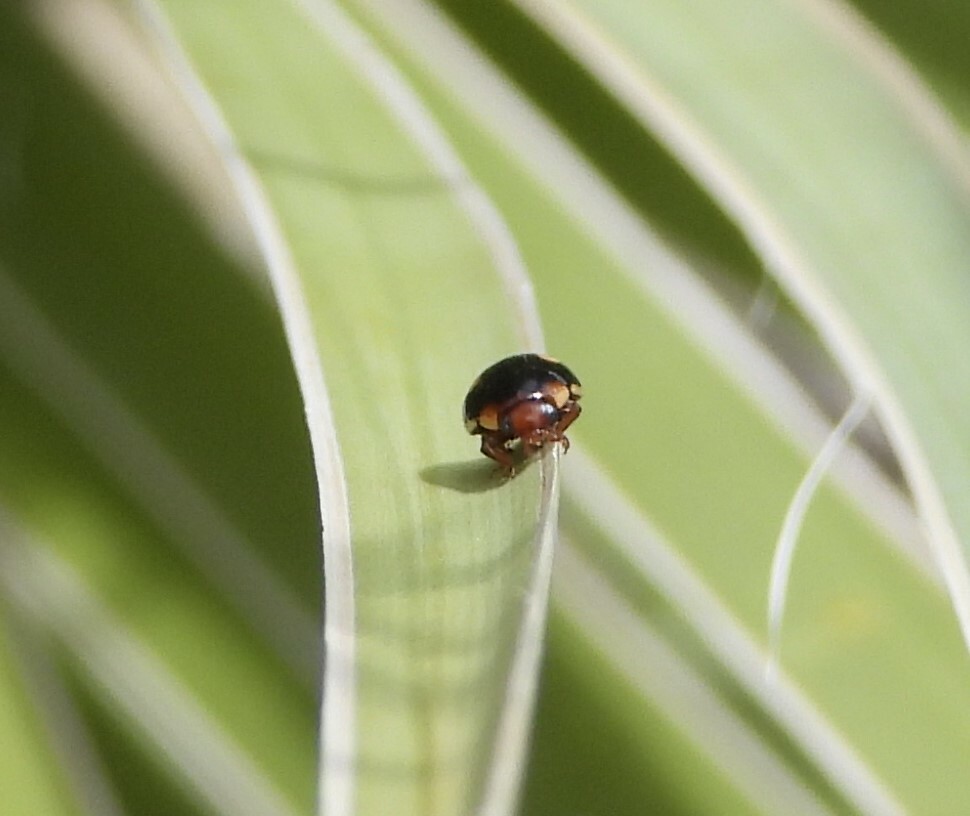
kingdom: Animalia
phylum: Arthropoda
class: Insecta
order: Coleoptera
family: Coccinellidae
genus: Hyperaspis
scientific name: Hyperaspis lugubris
